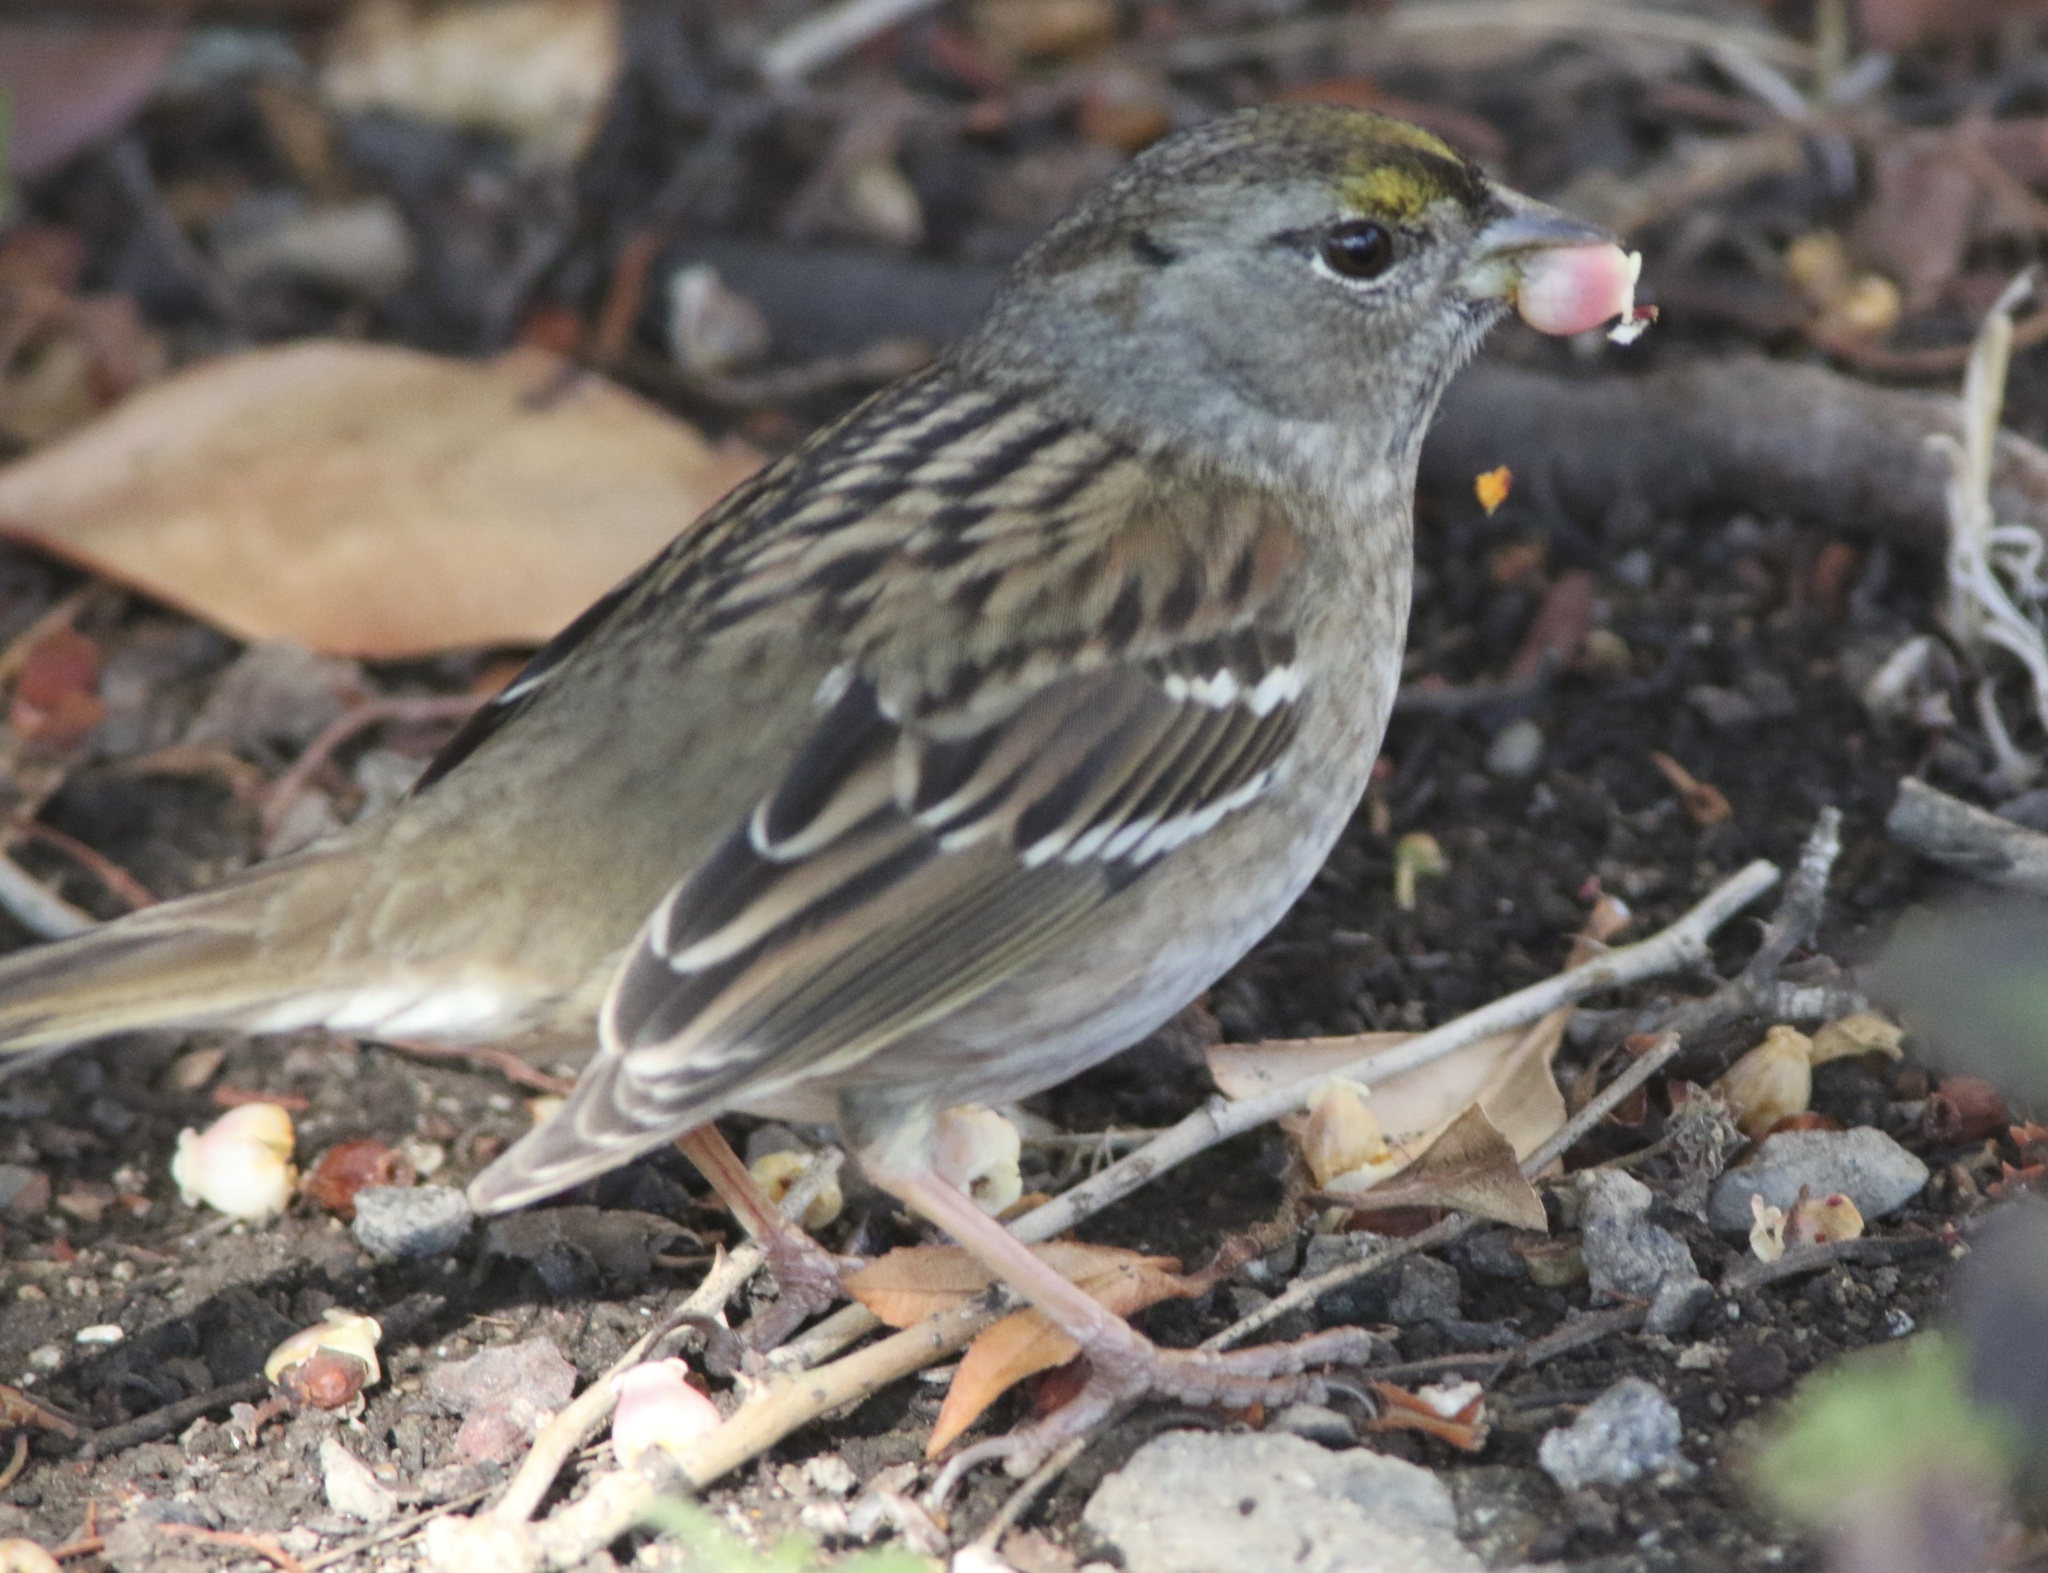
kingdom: Animalia
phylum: Chordata
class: Aves
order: Passeriformes
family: Passerellidae
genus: Zonotrichia
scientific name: Zonotrichia atricapilla
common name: Golden-crowned sparrow
